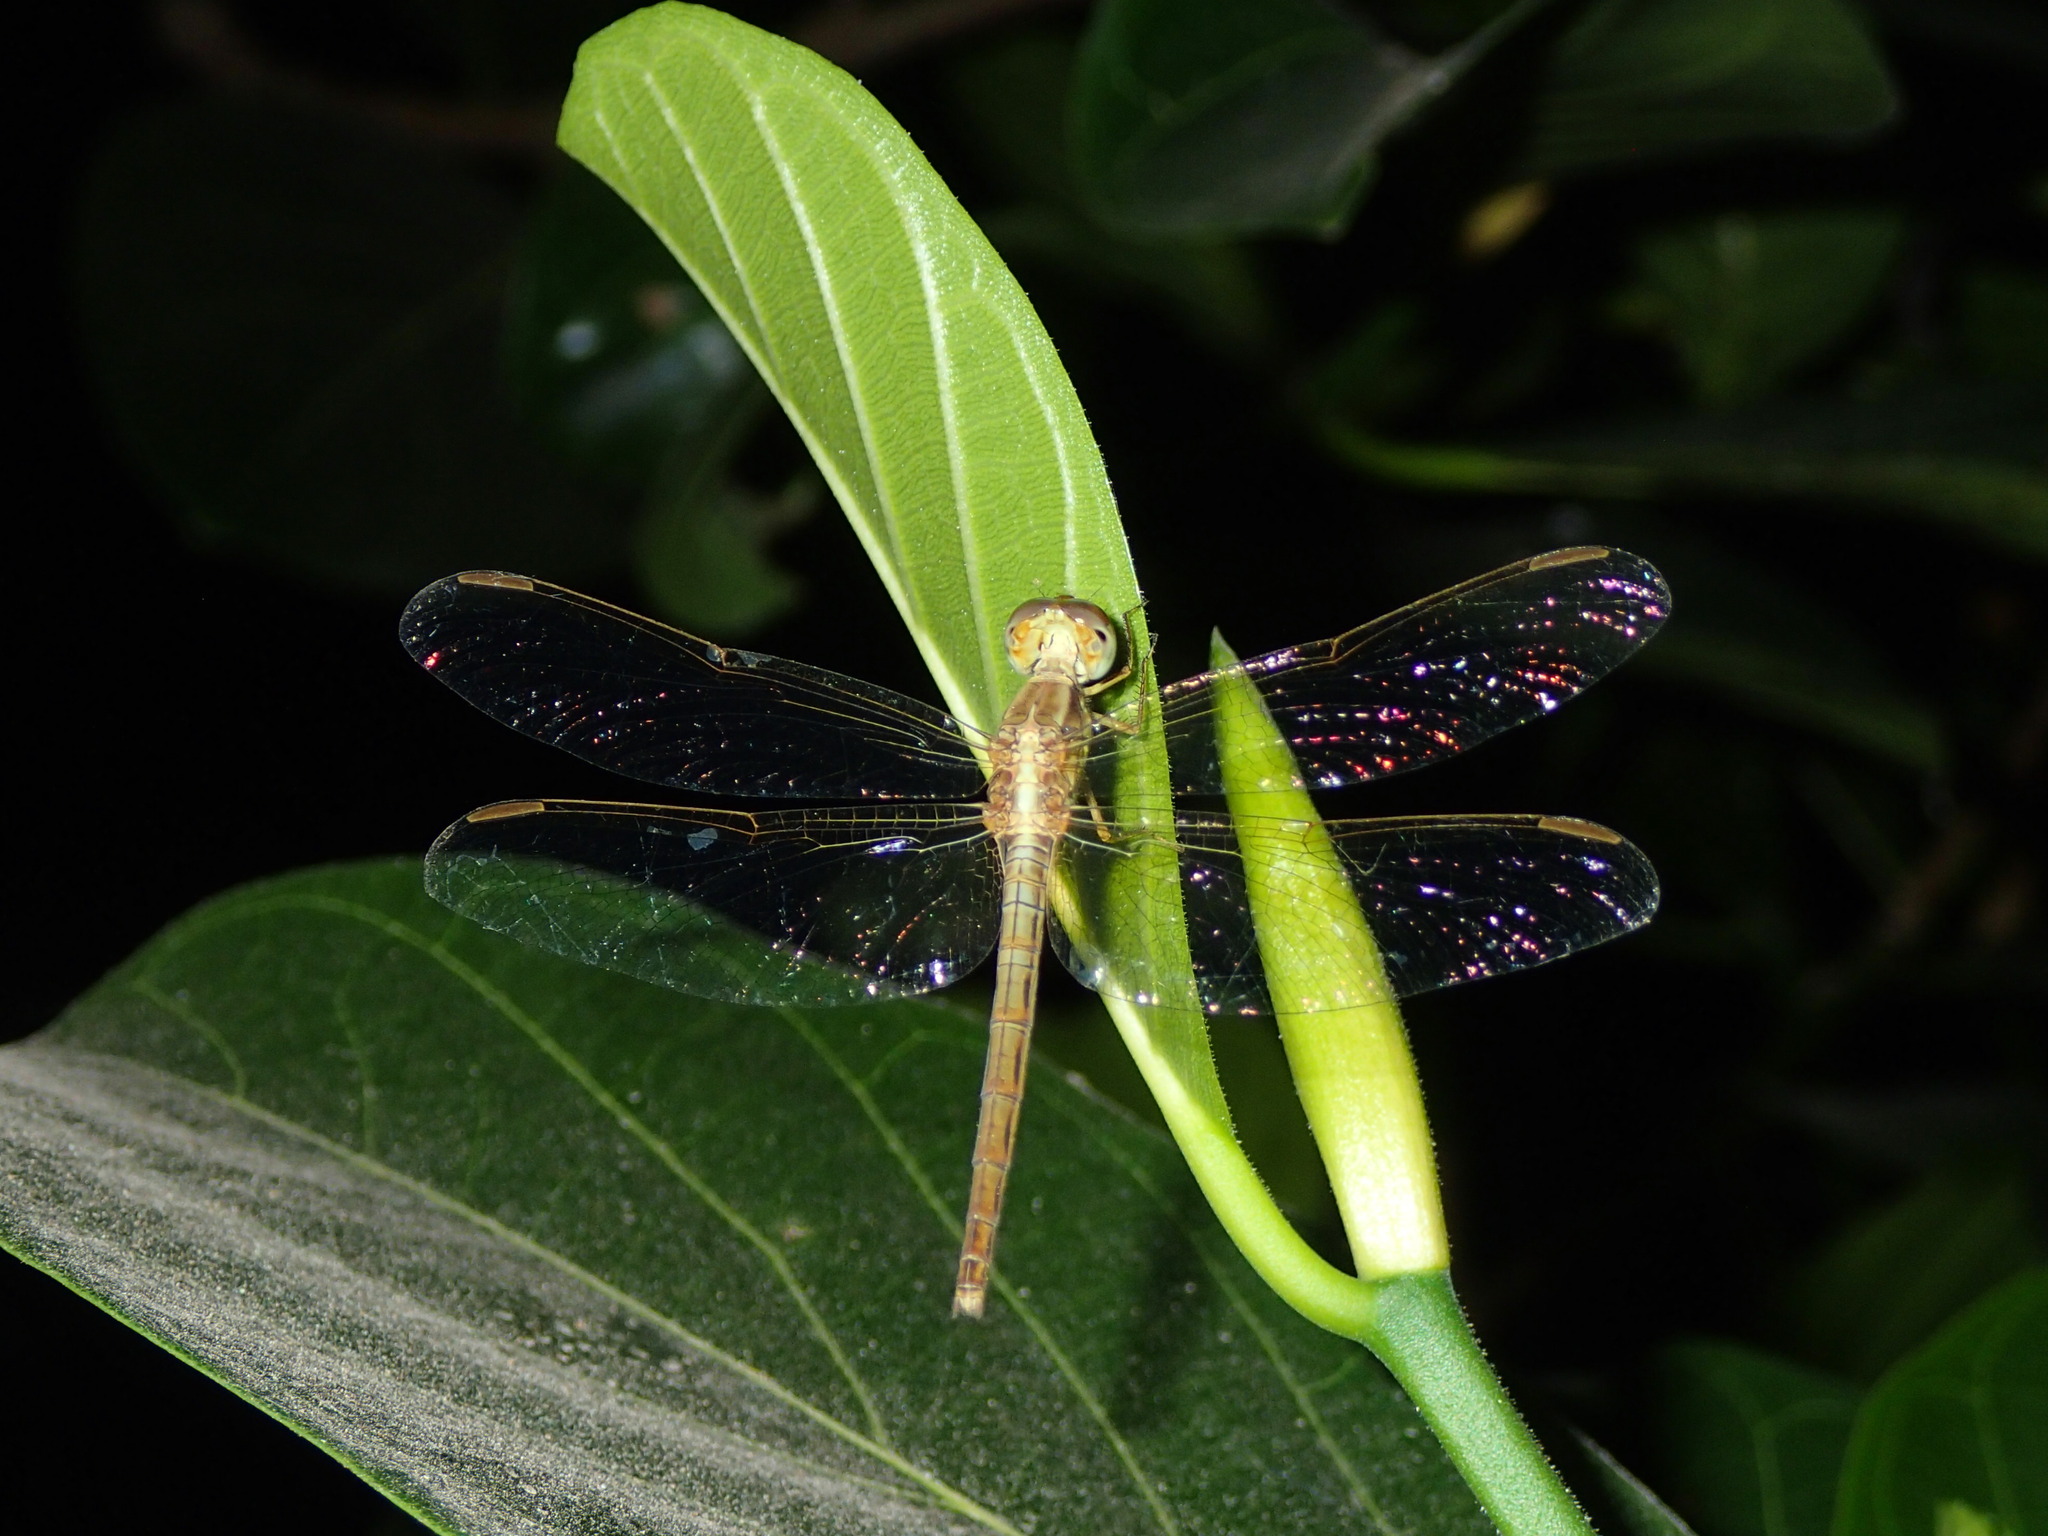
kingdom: Animalia
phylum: Arthropoda
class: Insecta
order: Odonata
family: Libellulidae
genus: Neurothemis
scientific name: Neurothemis intermedia
